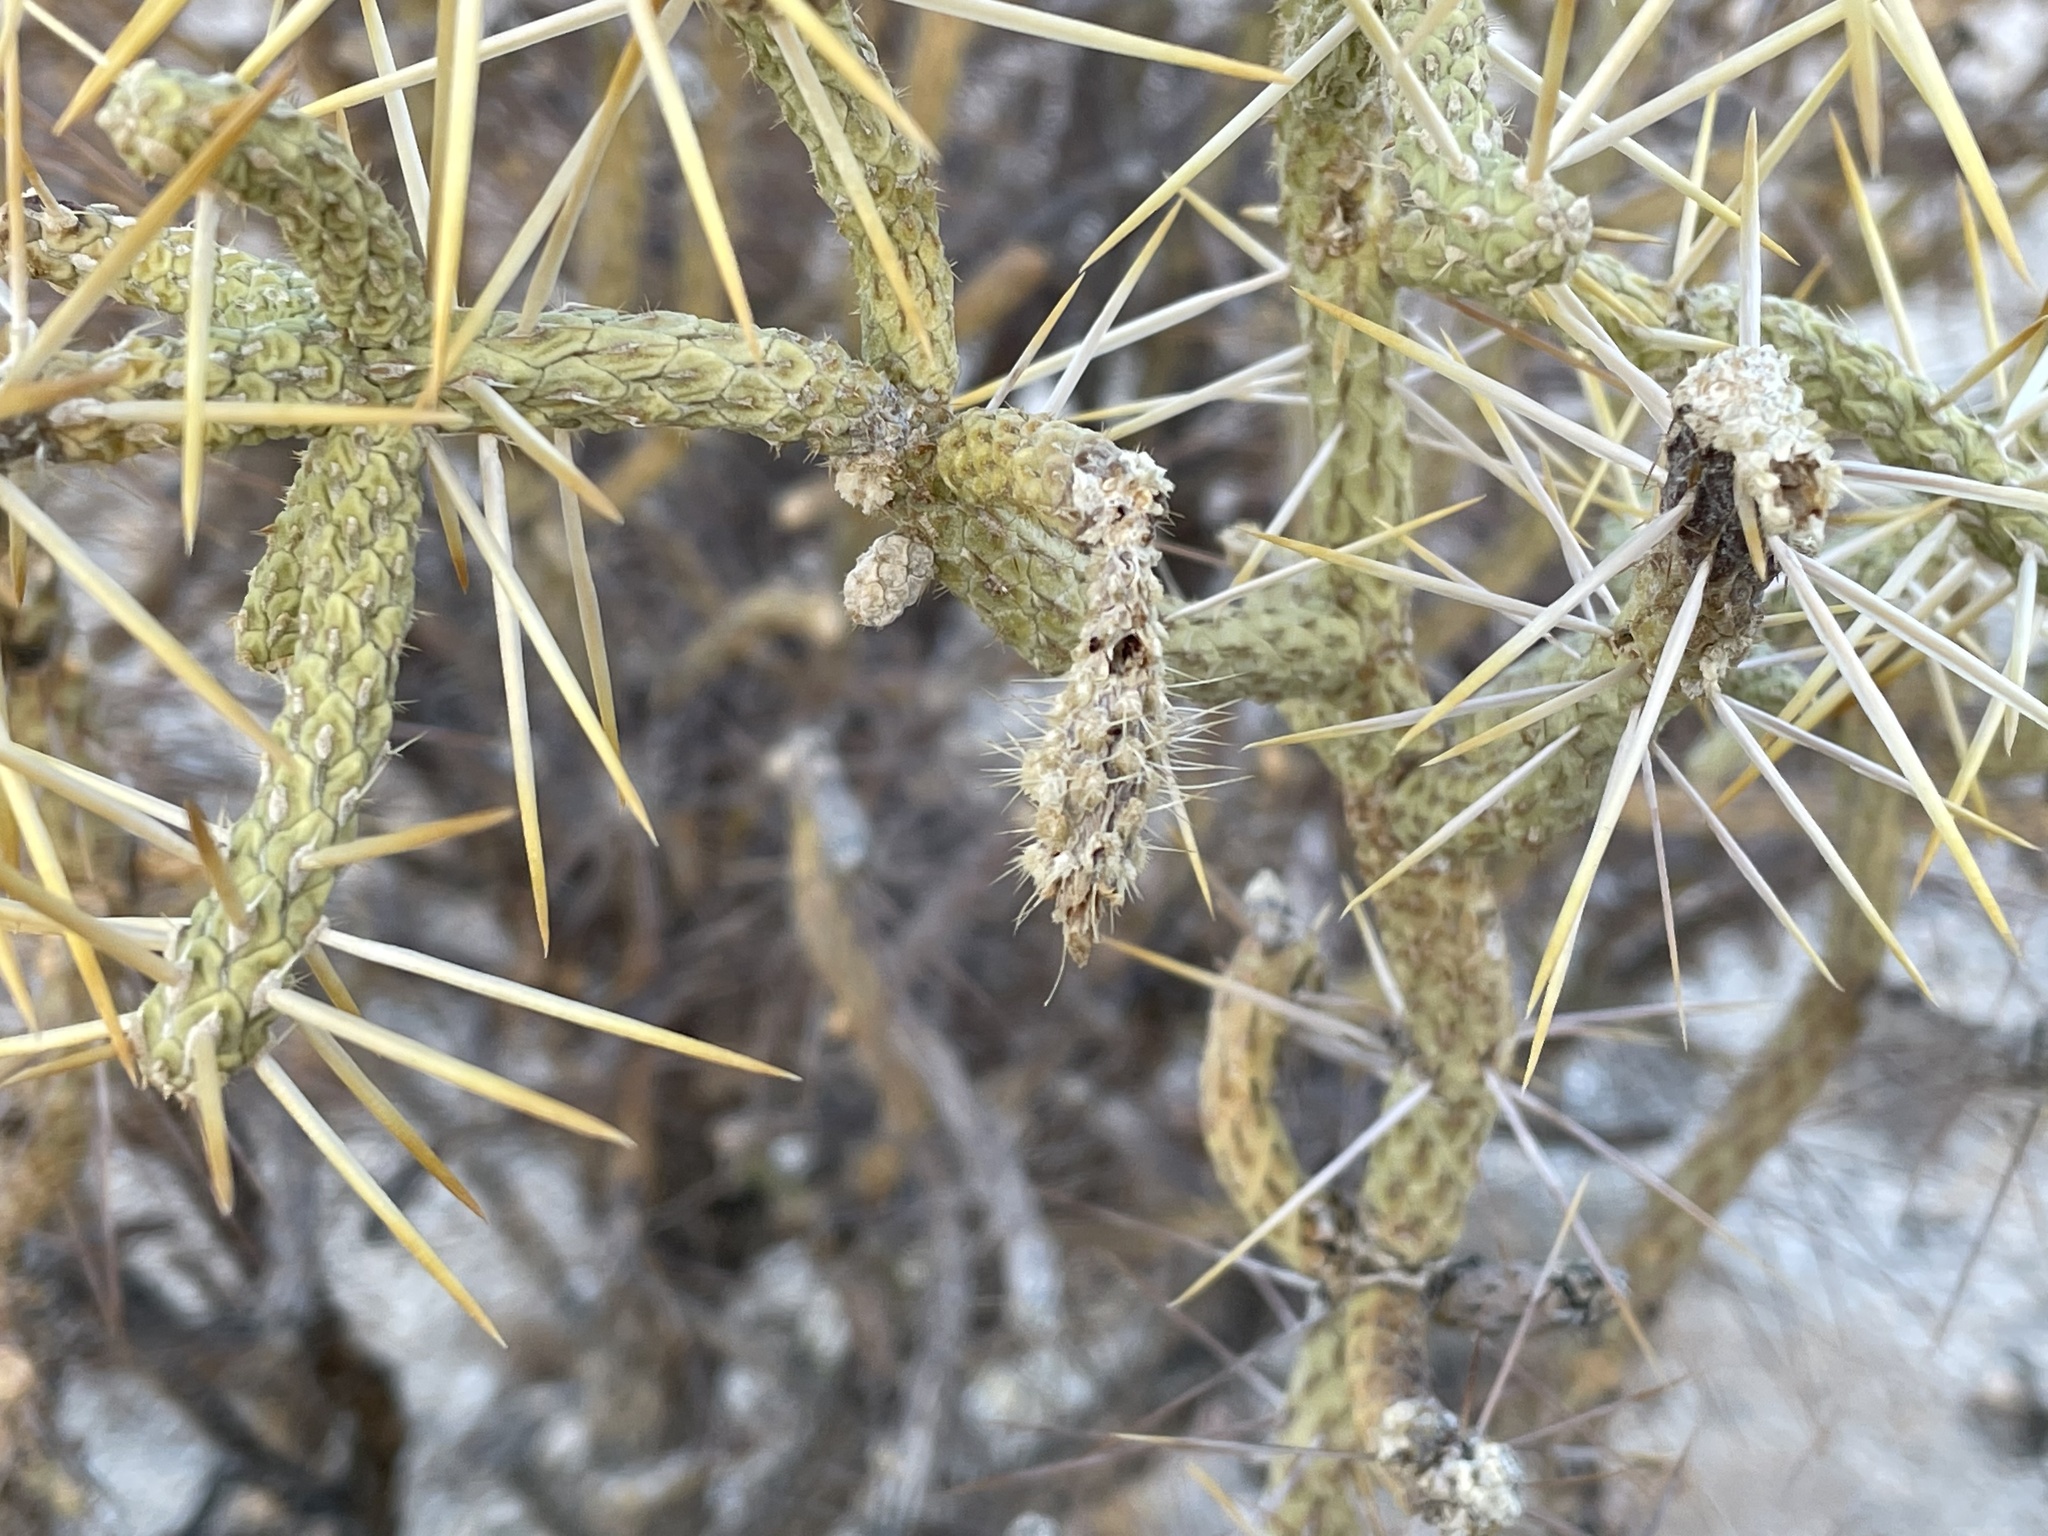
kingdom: Plantae
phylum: Tracheophyta
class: Magnoliopsida
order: Caryophyllales
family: Cactaceae
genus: Cylindropuntia
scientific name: Cylindropuntia ramosissima
